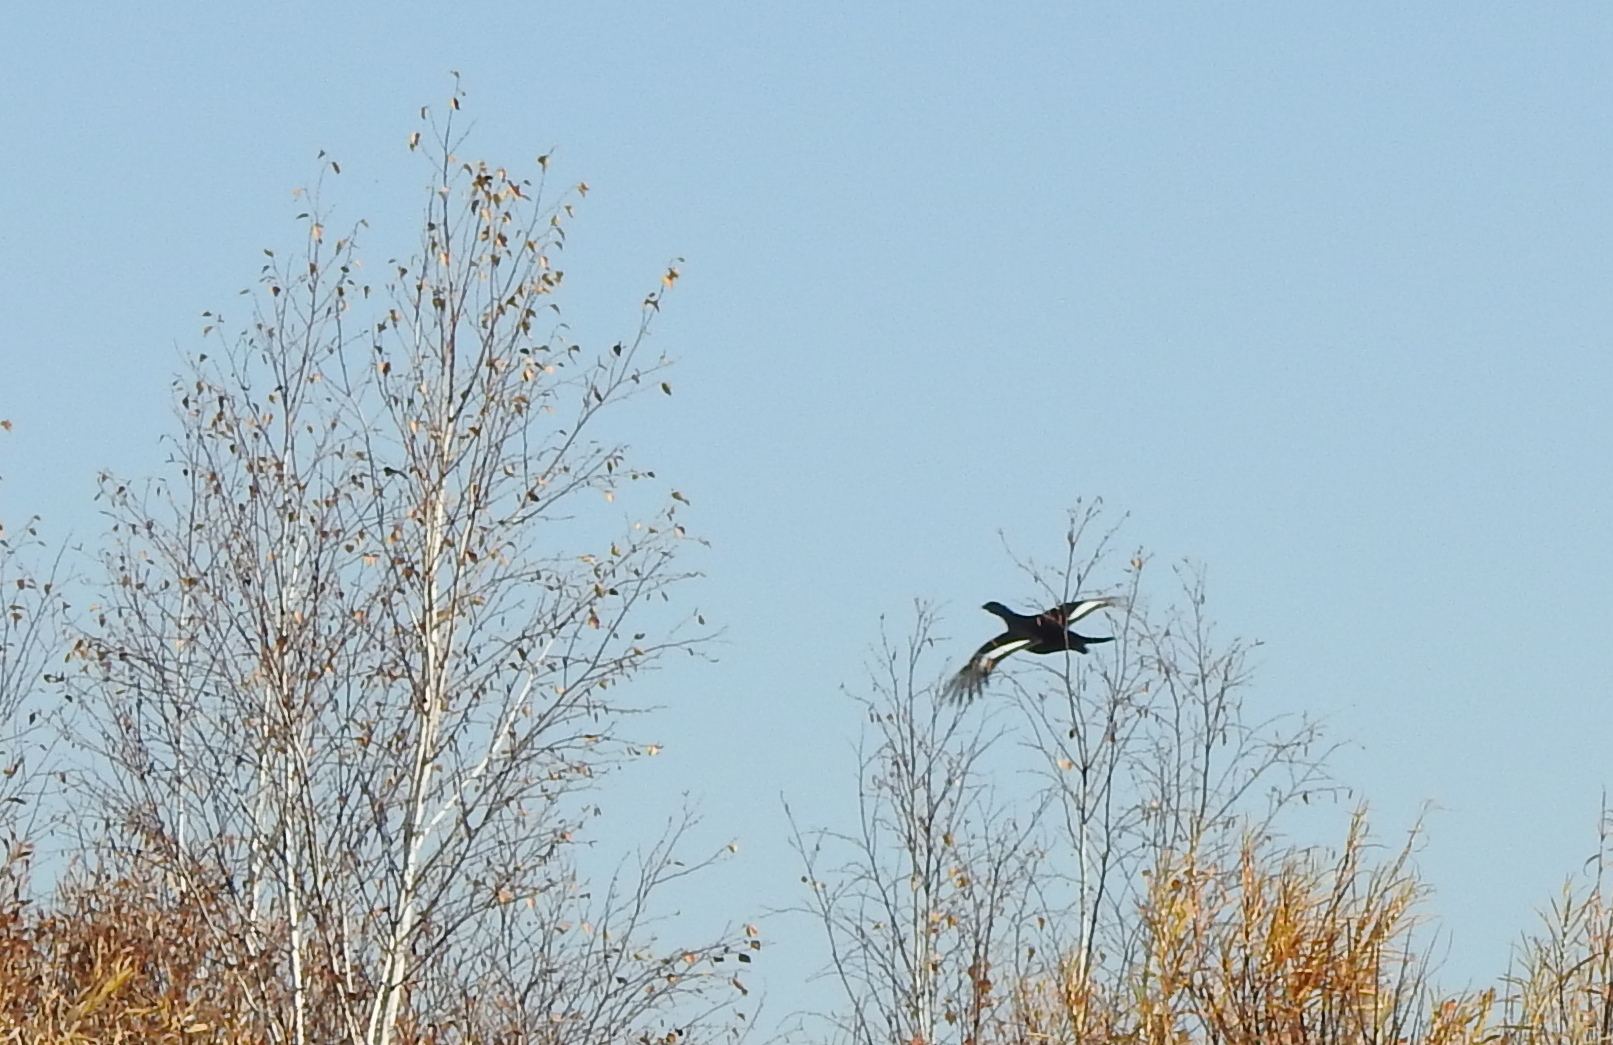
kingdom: Animalia
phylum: Chordata
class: Aves
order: Galliformes
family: Phasianidae
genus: Lyrurus
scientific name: Lyrurus tetrix
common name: Black grouse
